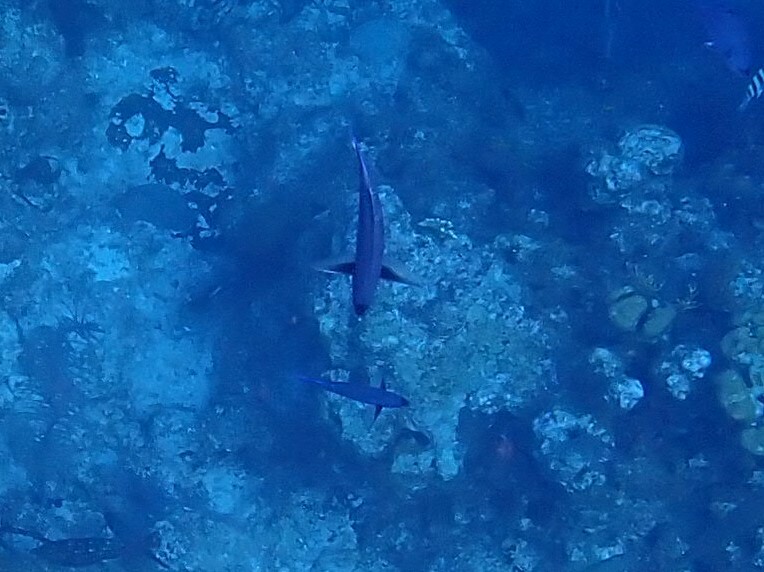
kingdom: Animalia
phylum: Chordata
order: Perciformes
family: Labridae
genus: Bodianus
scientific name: Bodianus
